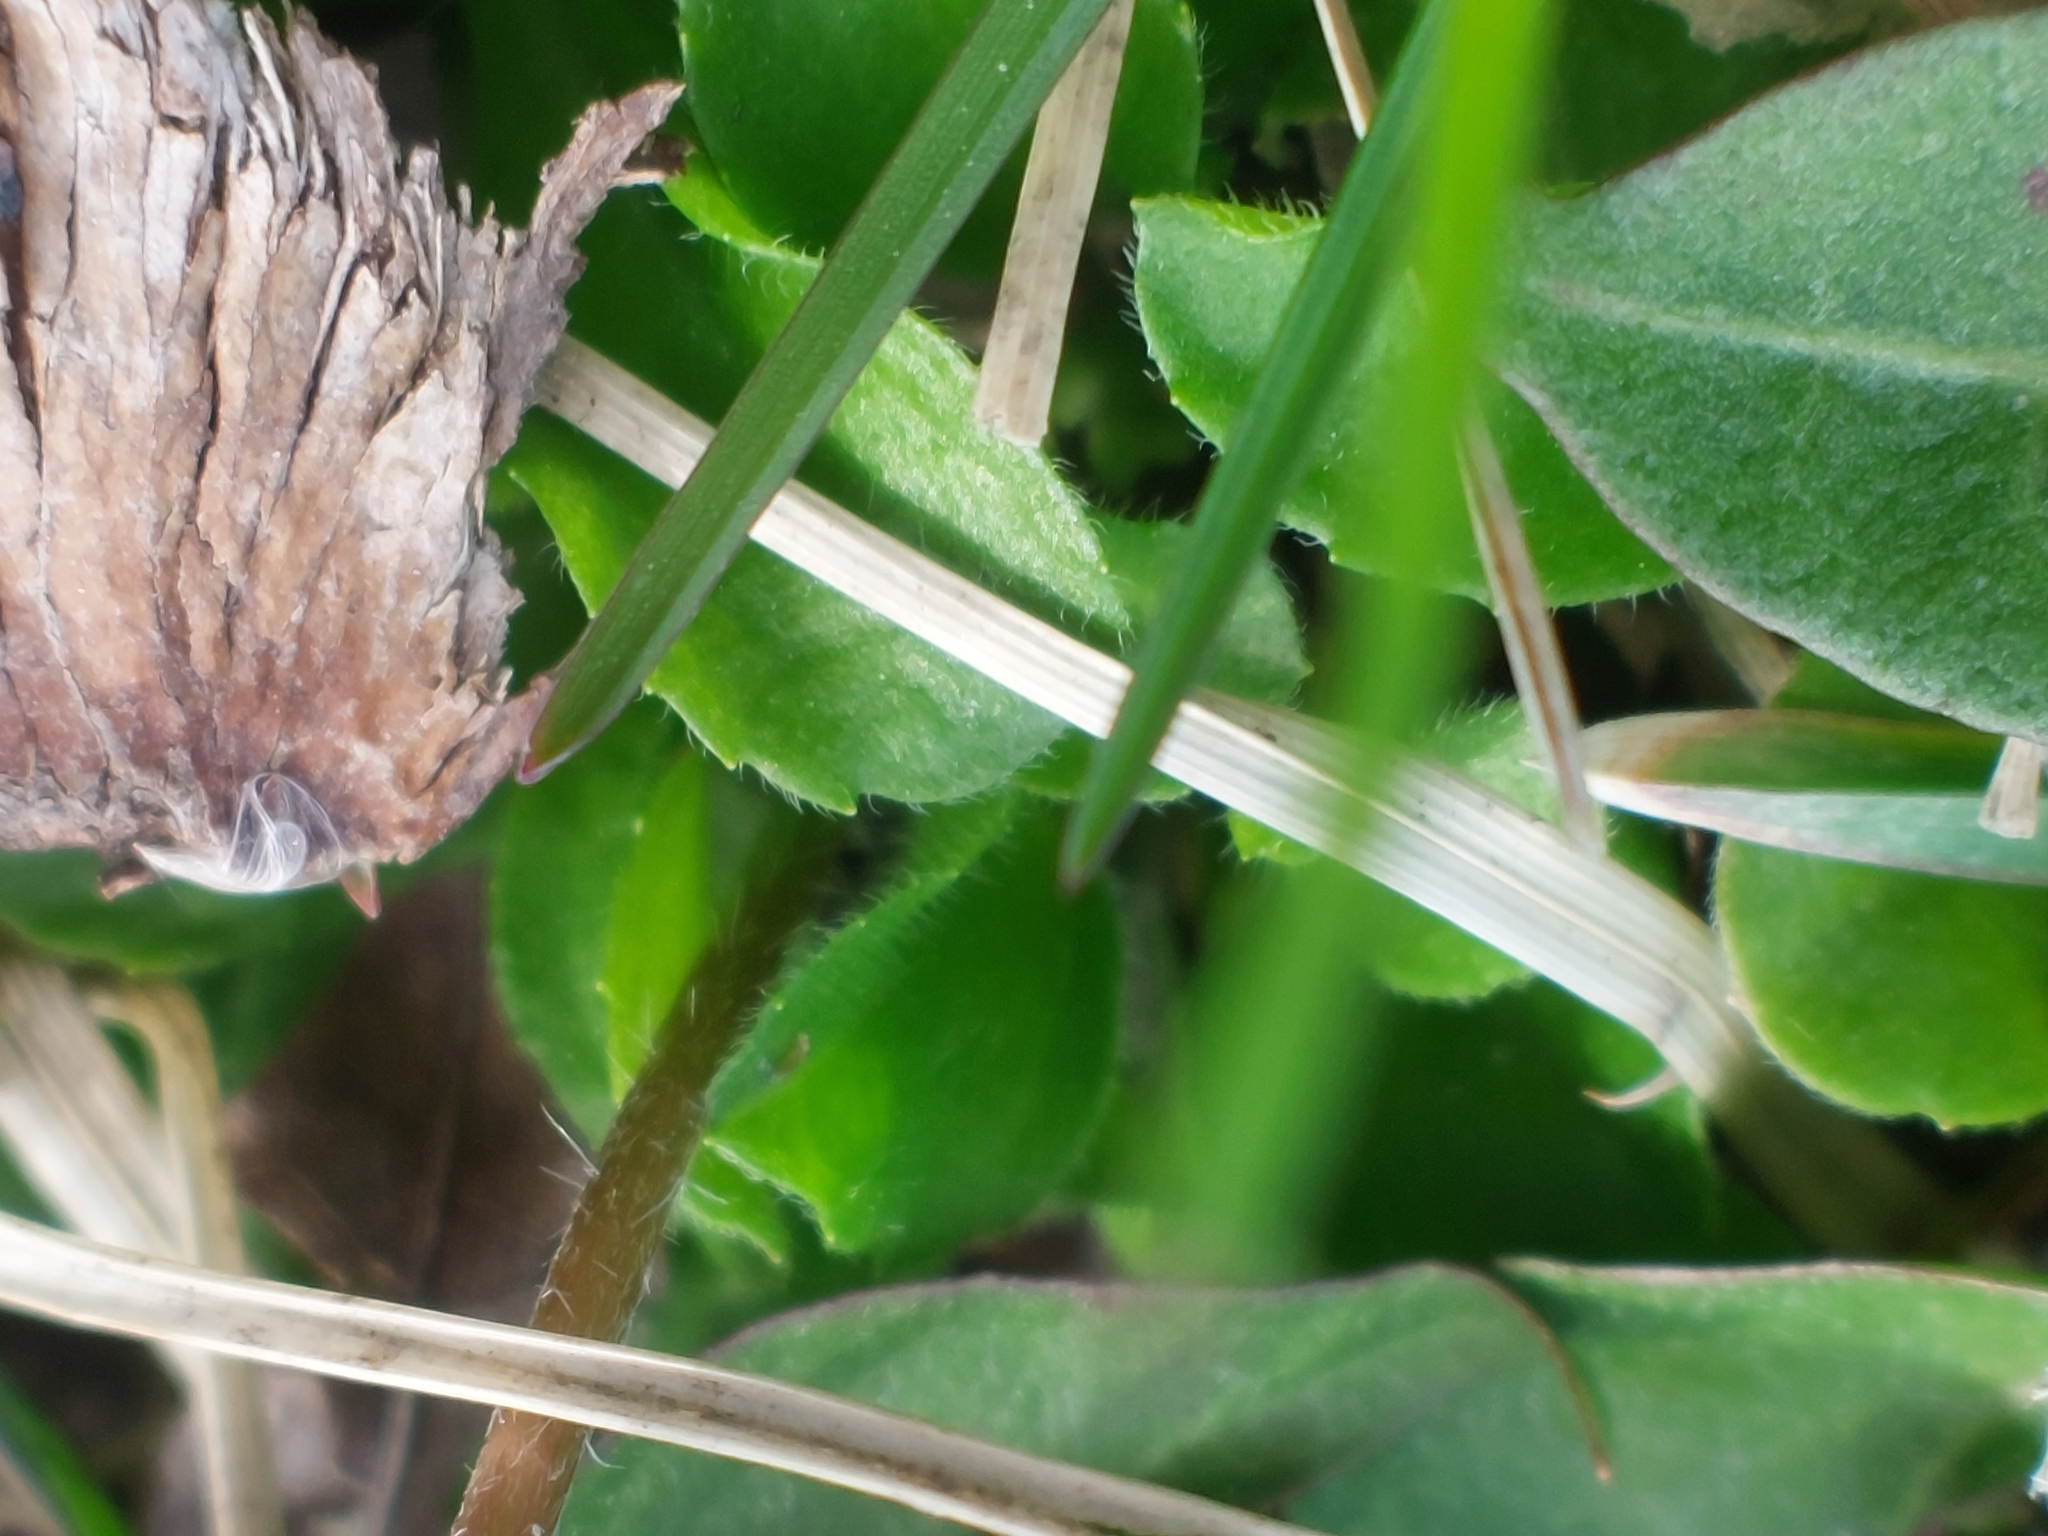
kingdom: Plantae
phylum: Tracheophyta
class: Magnoliopsida
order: Asterales
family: Asteraceae
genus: Bellis
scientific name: Bellis perennis
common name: Lawndaisy
